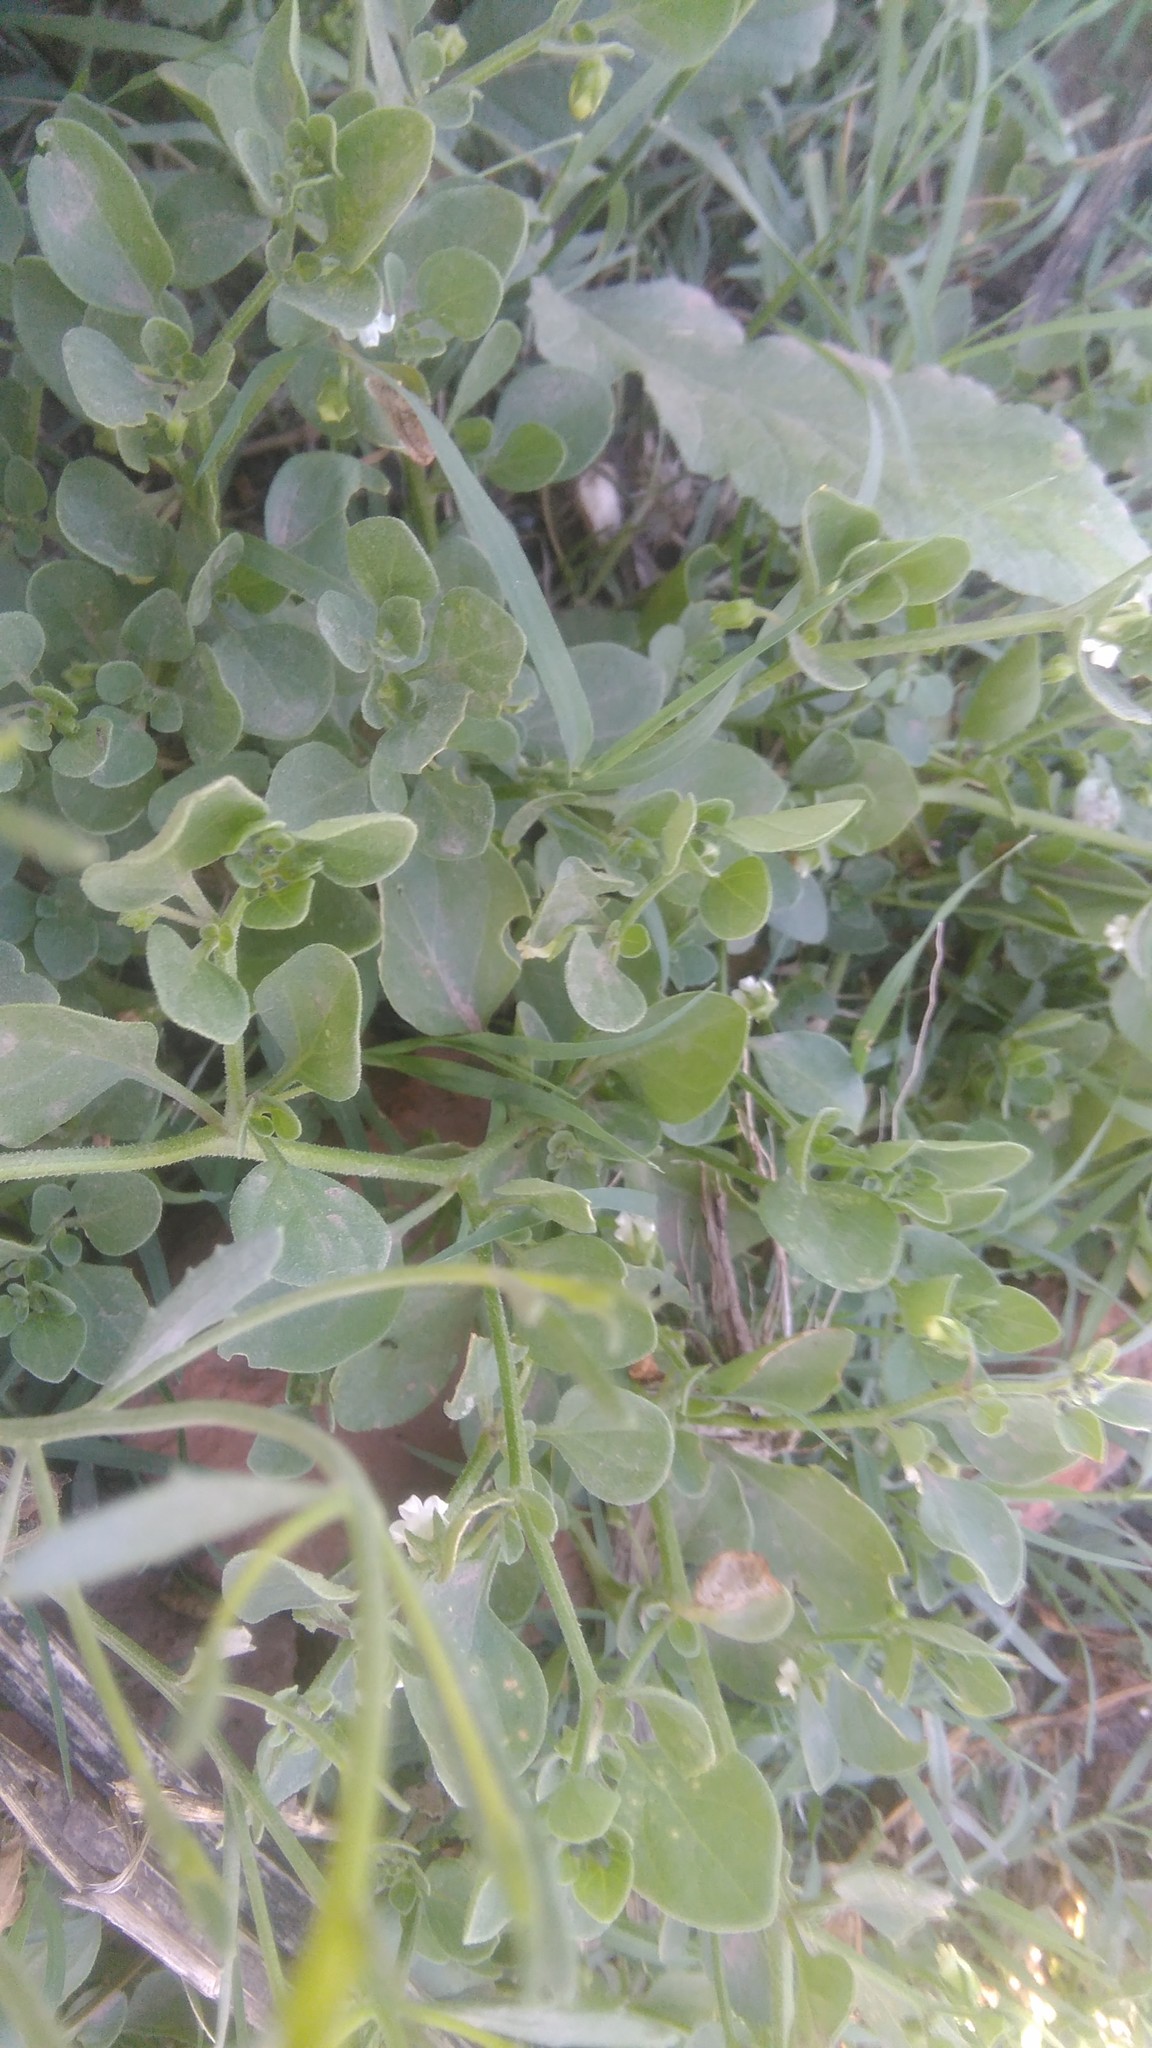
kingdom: Plantae
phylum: Tracheophyta
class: Magnoliopsida
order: Solanales
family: Solanaceae
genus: Salpichroa
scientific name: Salpichroa origanifolia
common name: Lily-of-the-valley-vine
